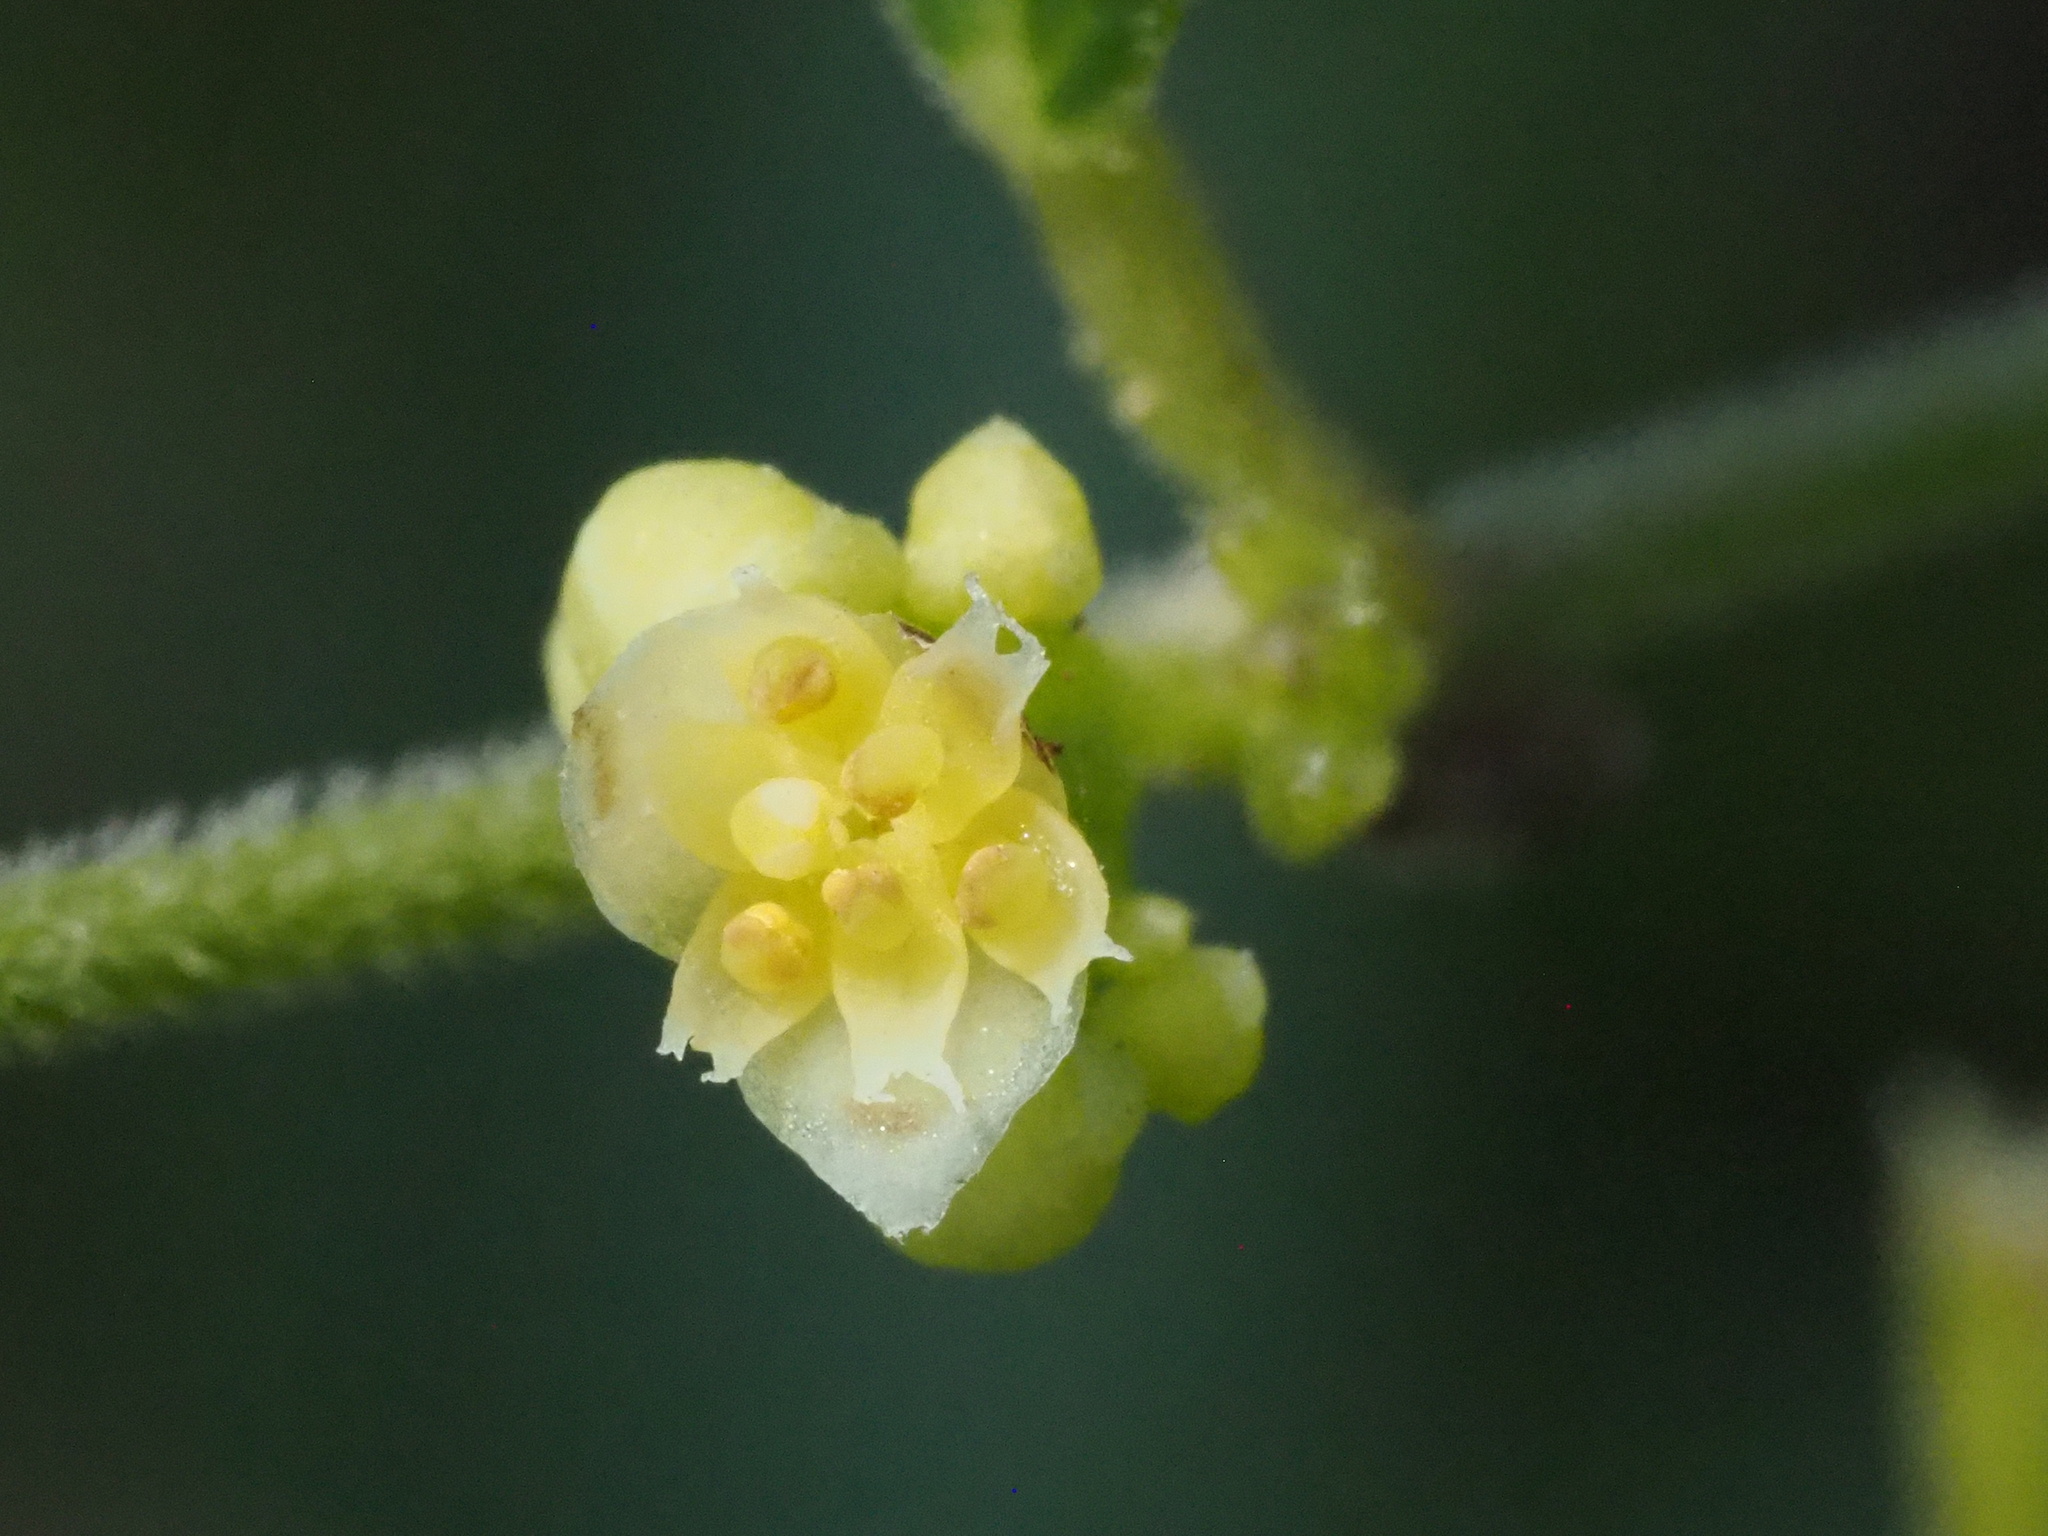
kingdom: Plantae
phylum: Tracheophyta
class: Magnoliopsida
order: Ranunculales
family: Menispermaceae
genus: Cocculus
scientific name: Cocculus orbiculatus
